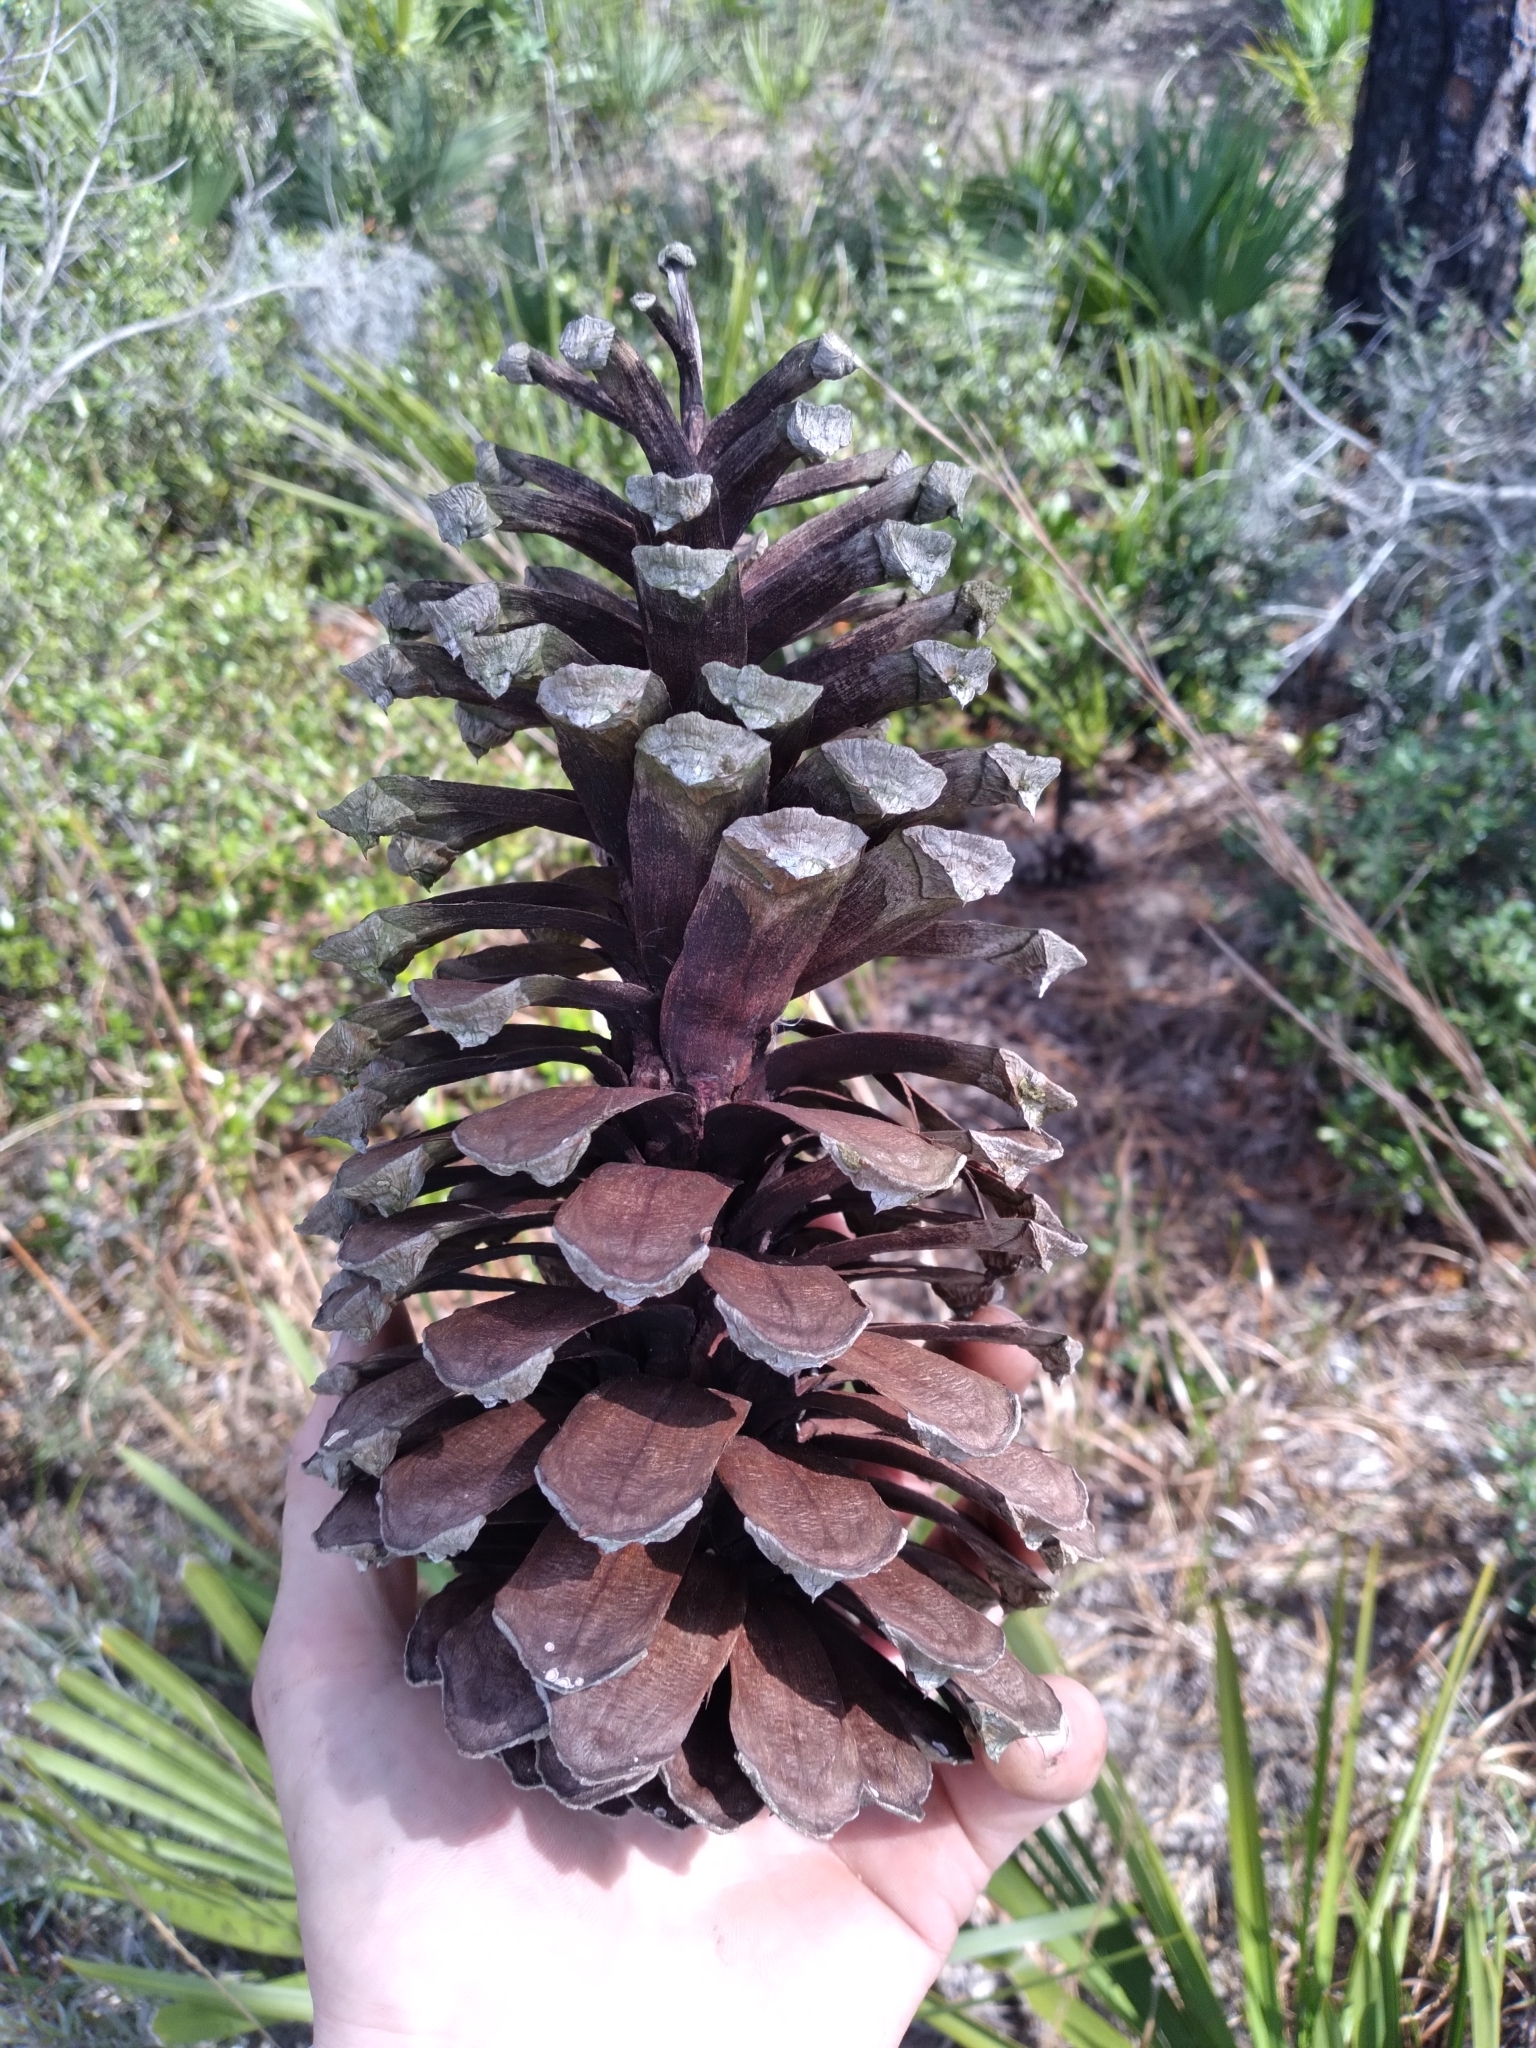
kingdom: Plantae
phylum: Tracheophyta
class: Pinopsida
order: Pinales
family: Pinaceae
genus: Pinus
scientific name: Pinus palustris
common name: Longleaf pine
